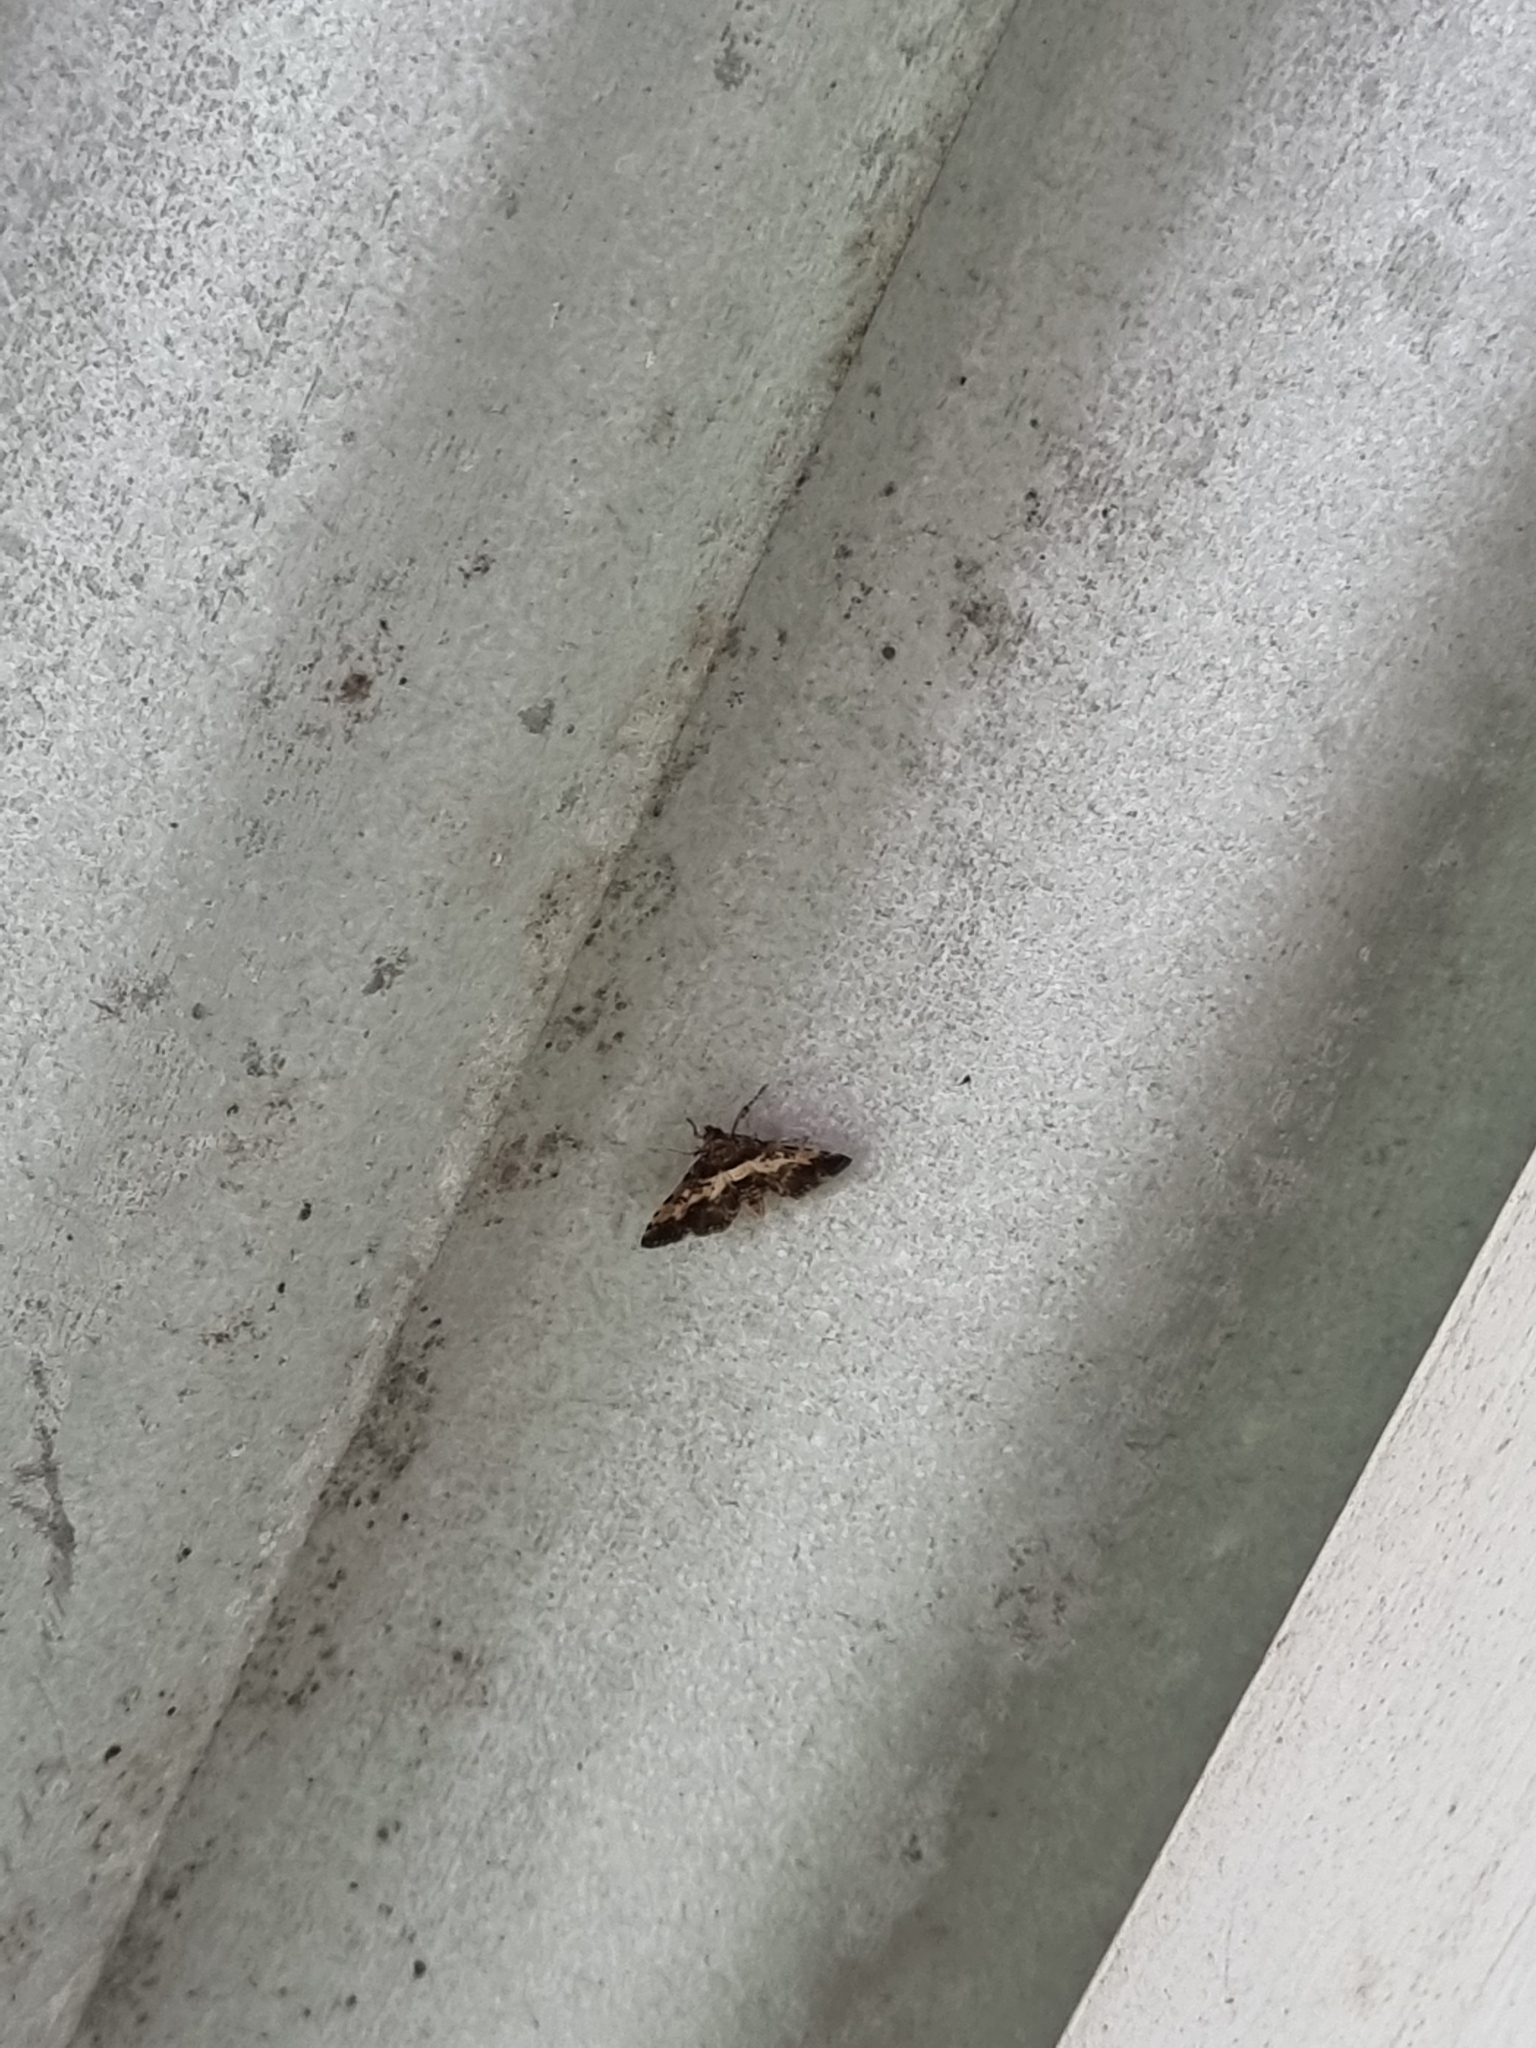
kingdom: Animalia
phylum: Arthropoda
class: Insecta
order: Lepidoptera
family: Crambidae
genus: Nacoleia
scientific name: Nacoleia amphicedalis
